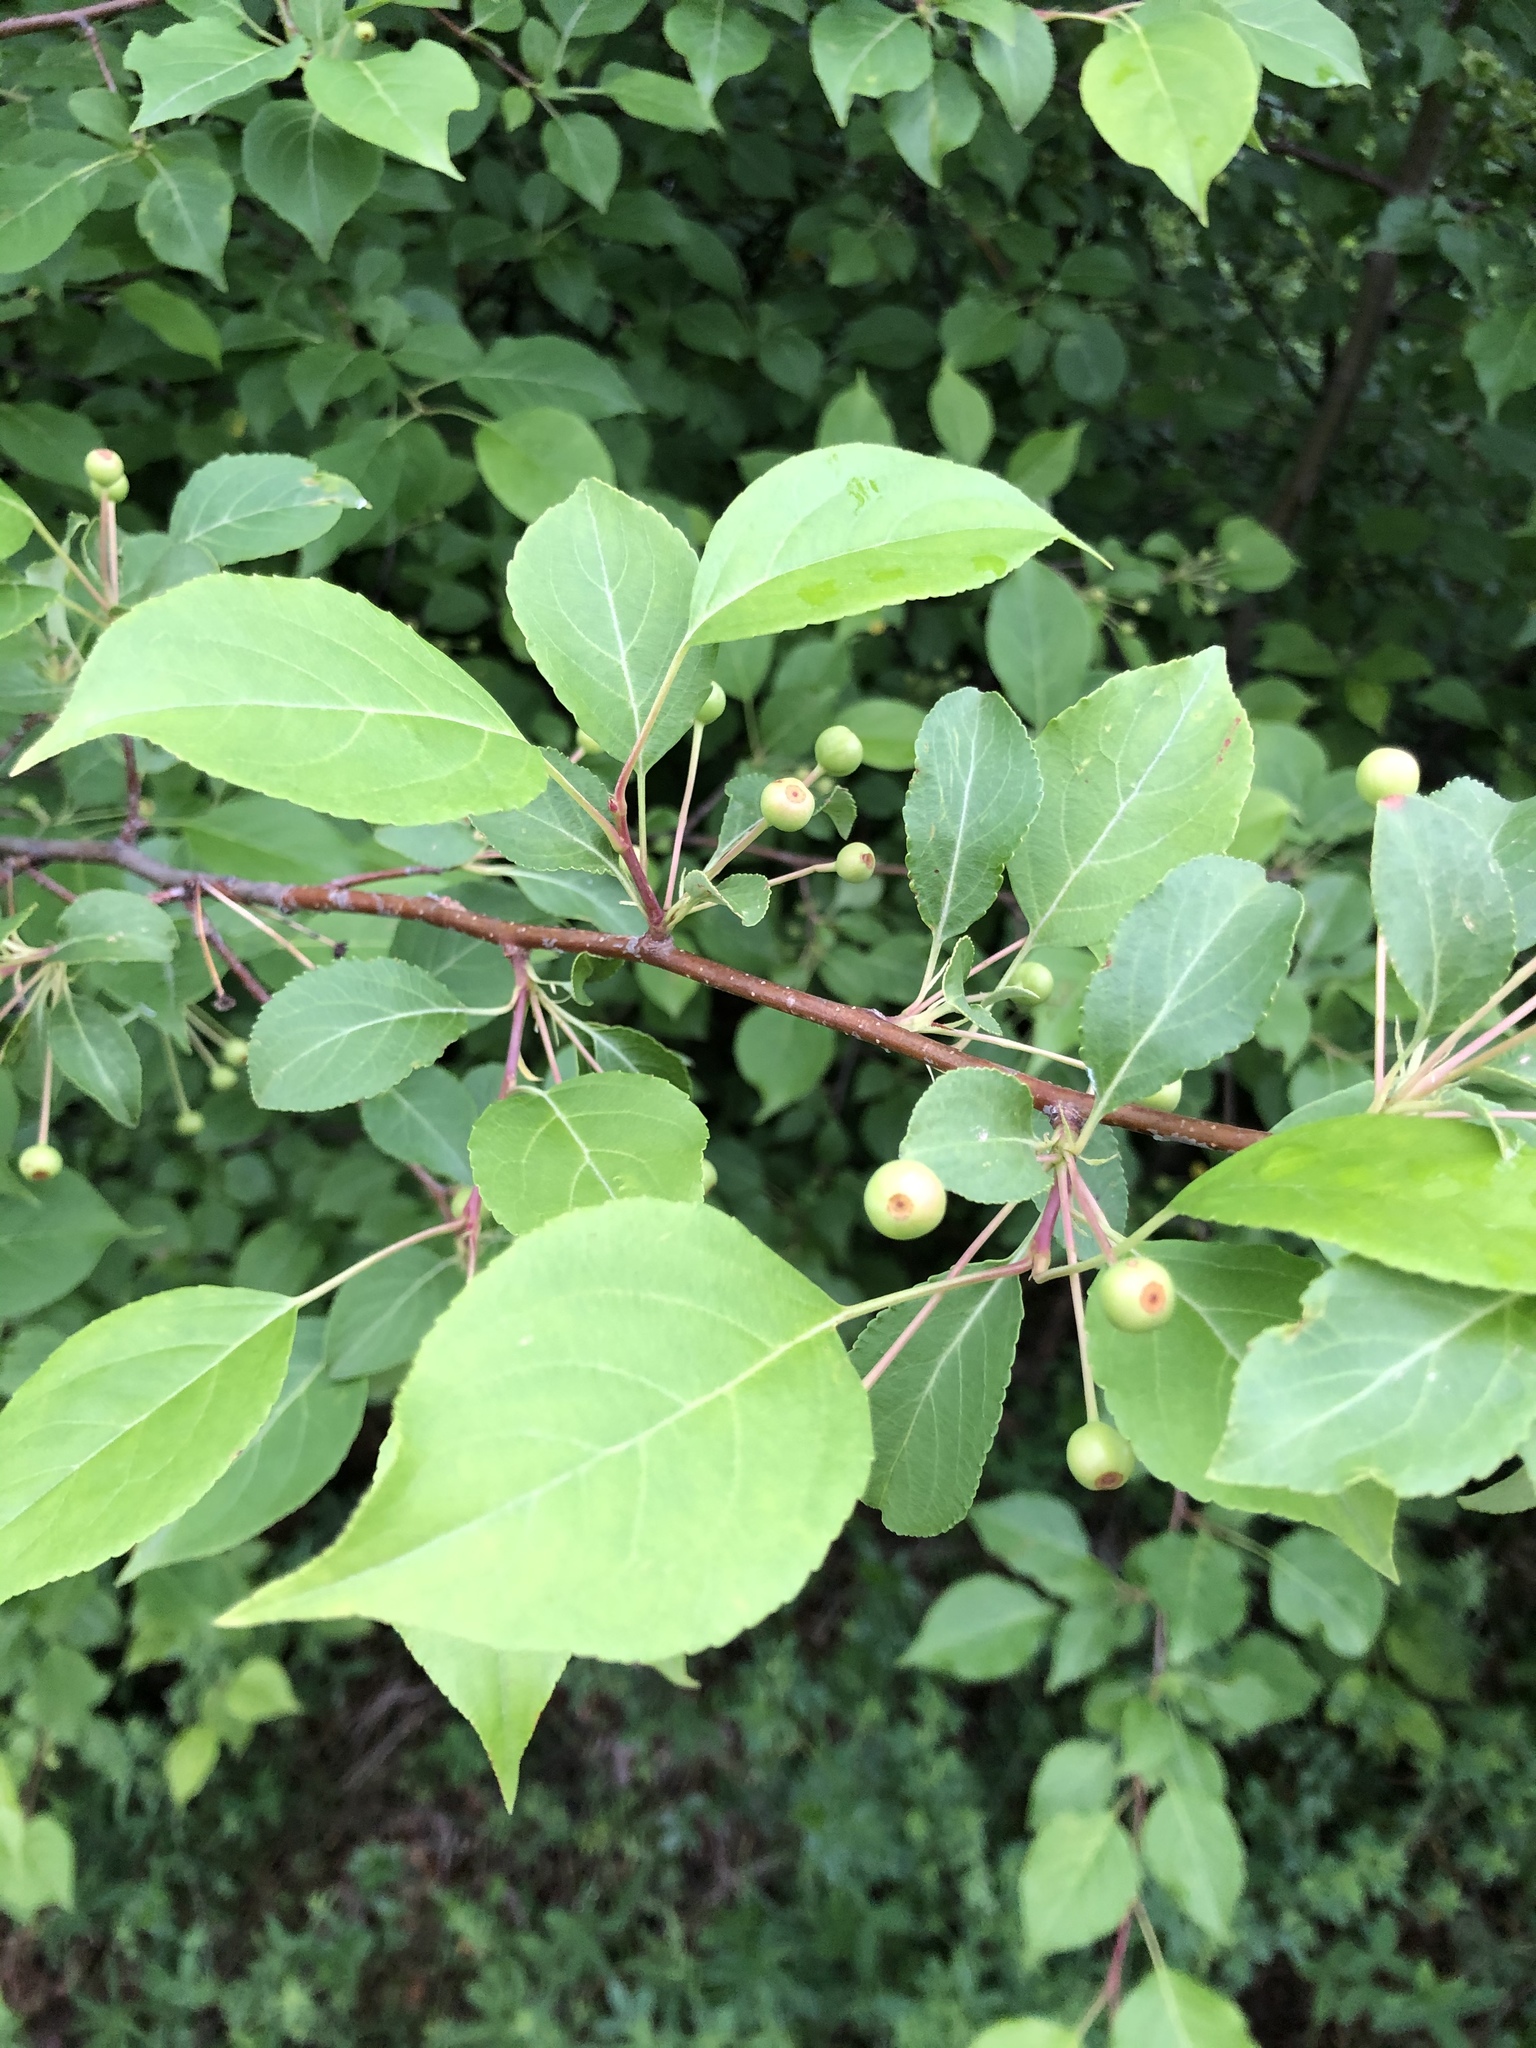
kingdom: Plantae
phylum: Tracheophyta
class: Magnoliopsida
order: Rosales
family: Rosaceae
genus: Malus
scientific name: Malus baccata
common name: Siberian crab
